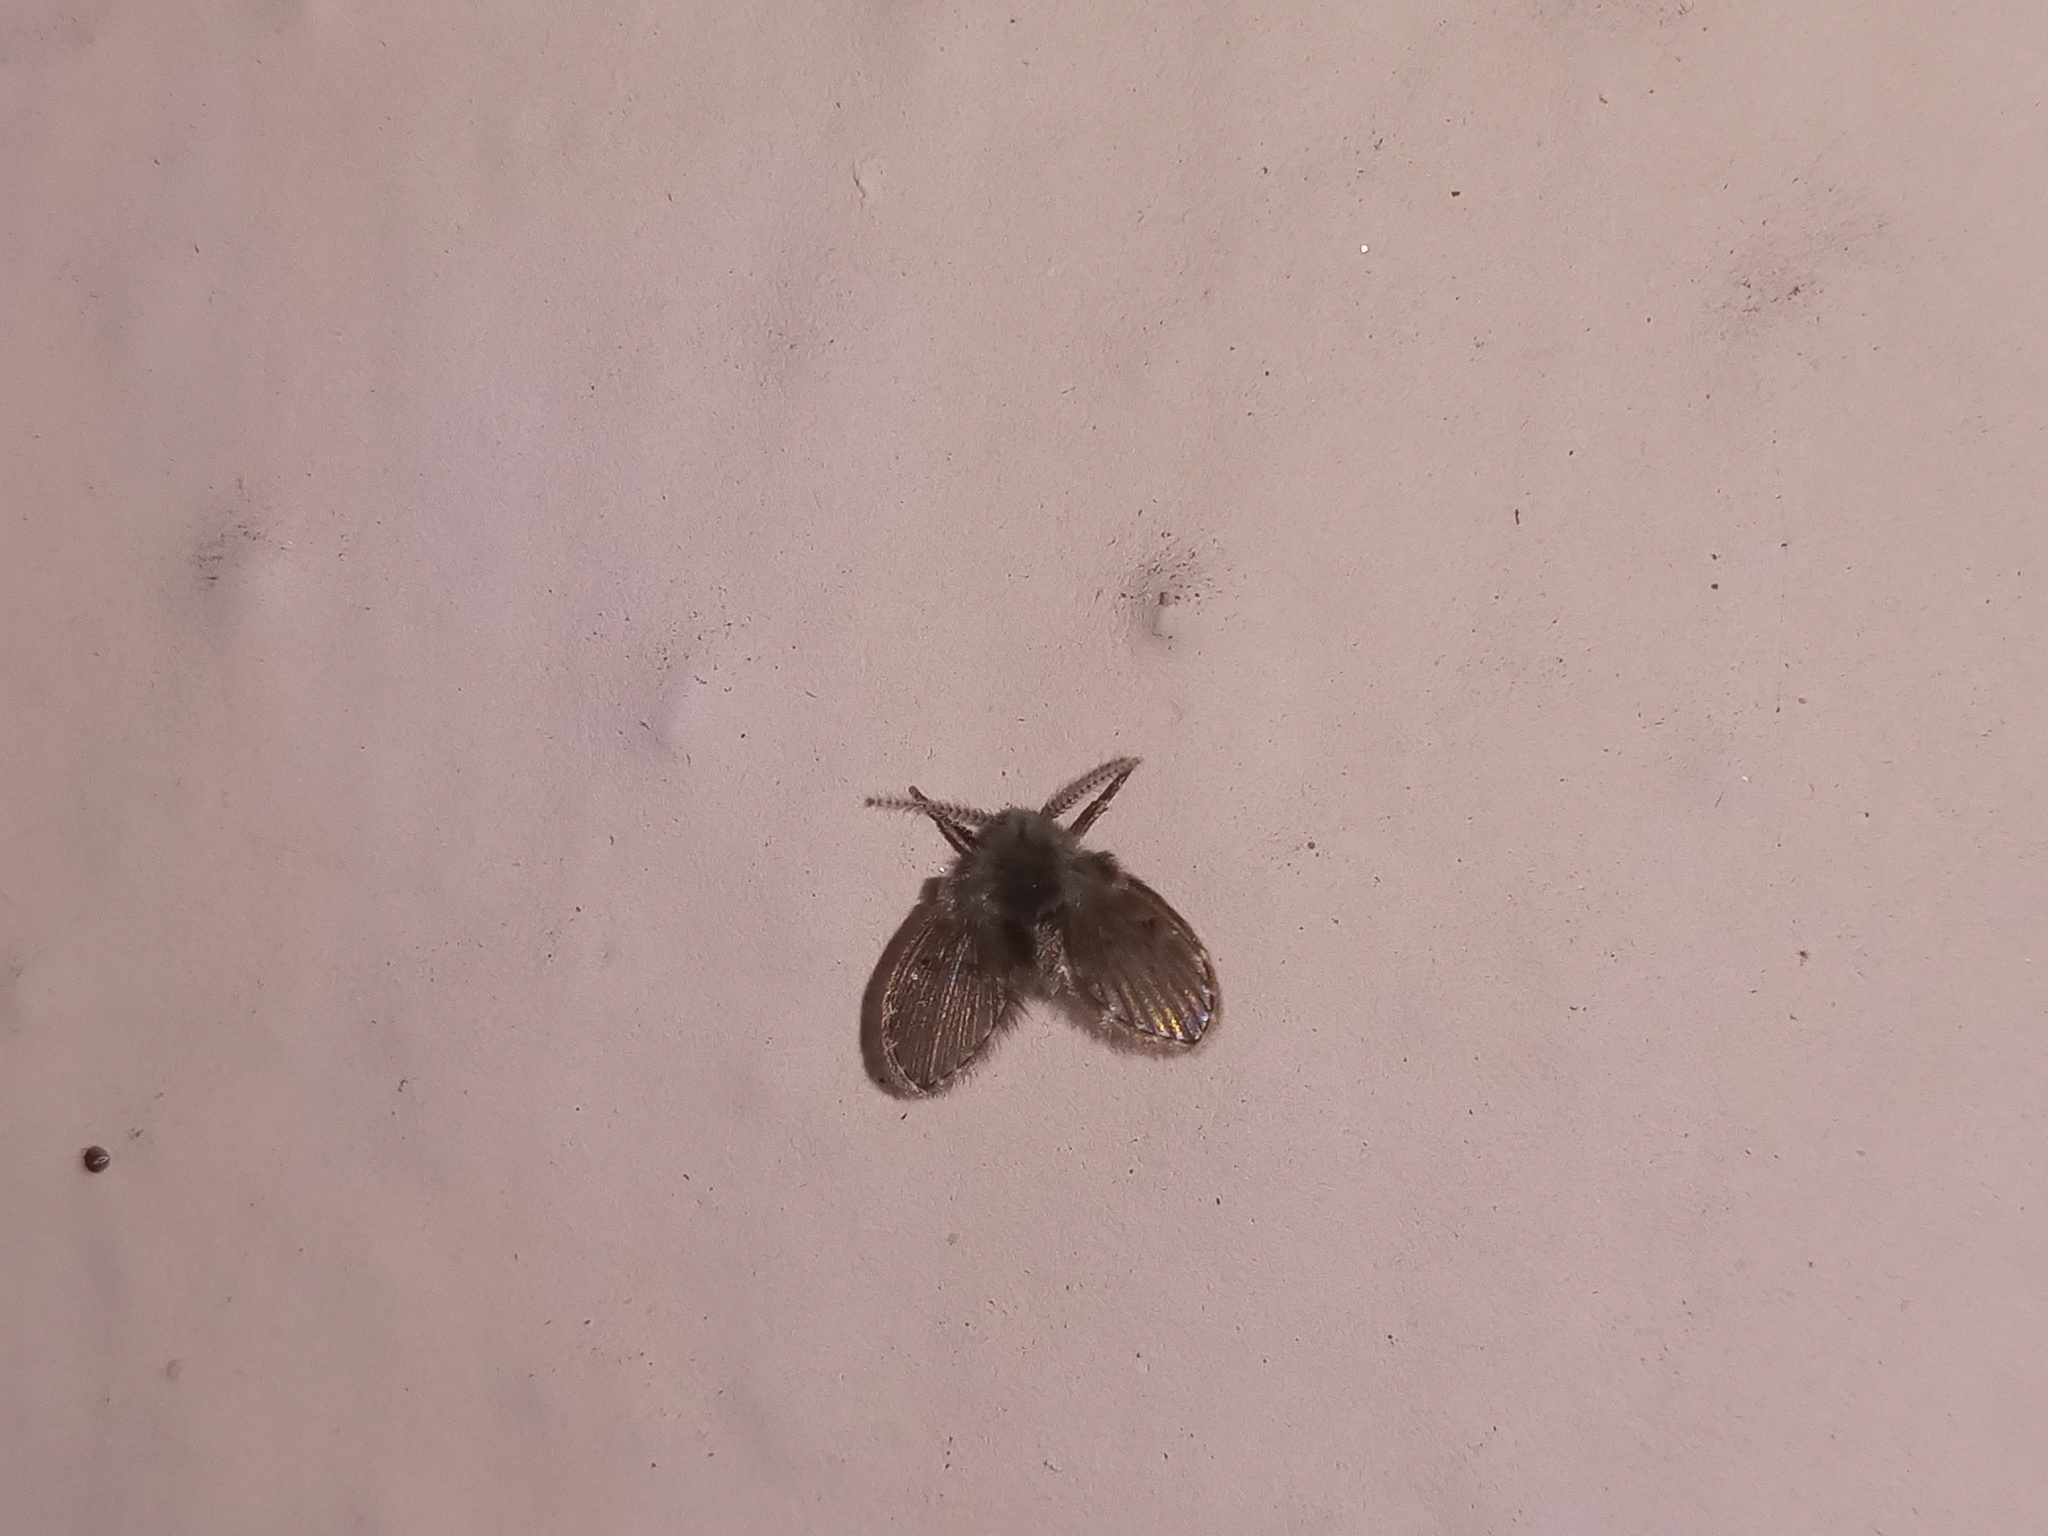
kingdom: Animalia
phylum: Arthropoda
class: Insecta
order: Diptera
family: Psychodidae
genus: Clogmia
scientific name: Clogmia albipunctatus
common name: White-spotted moth fly
